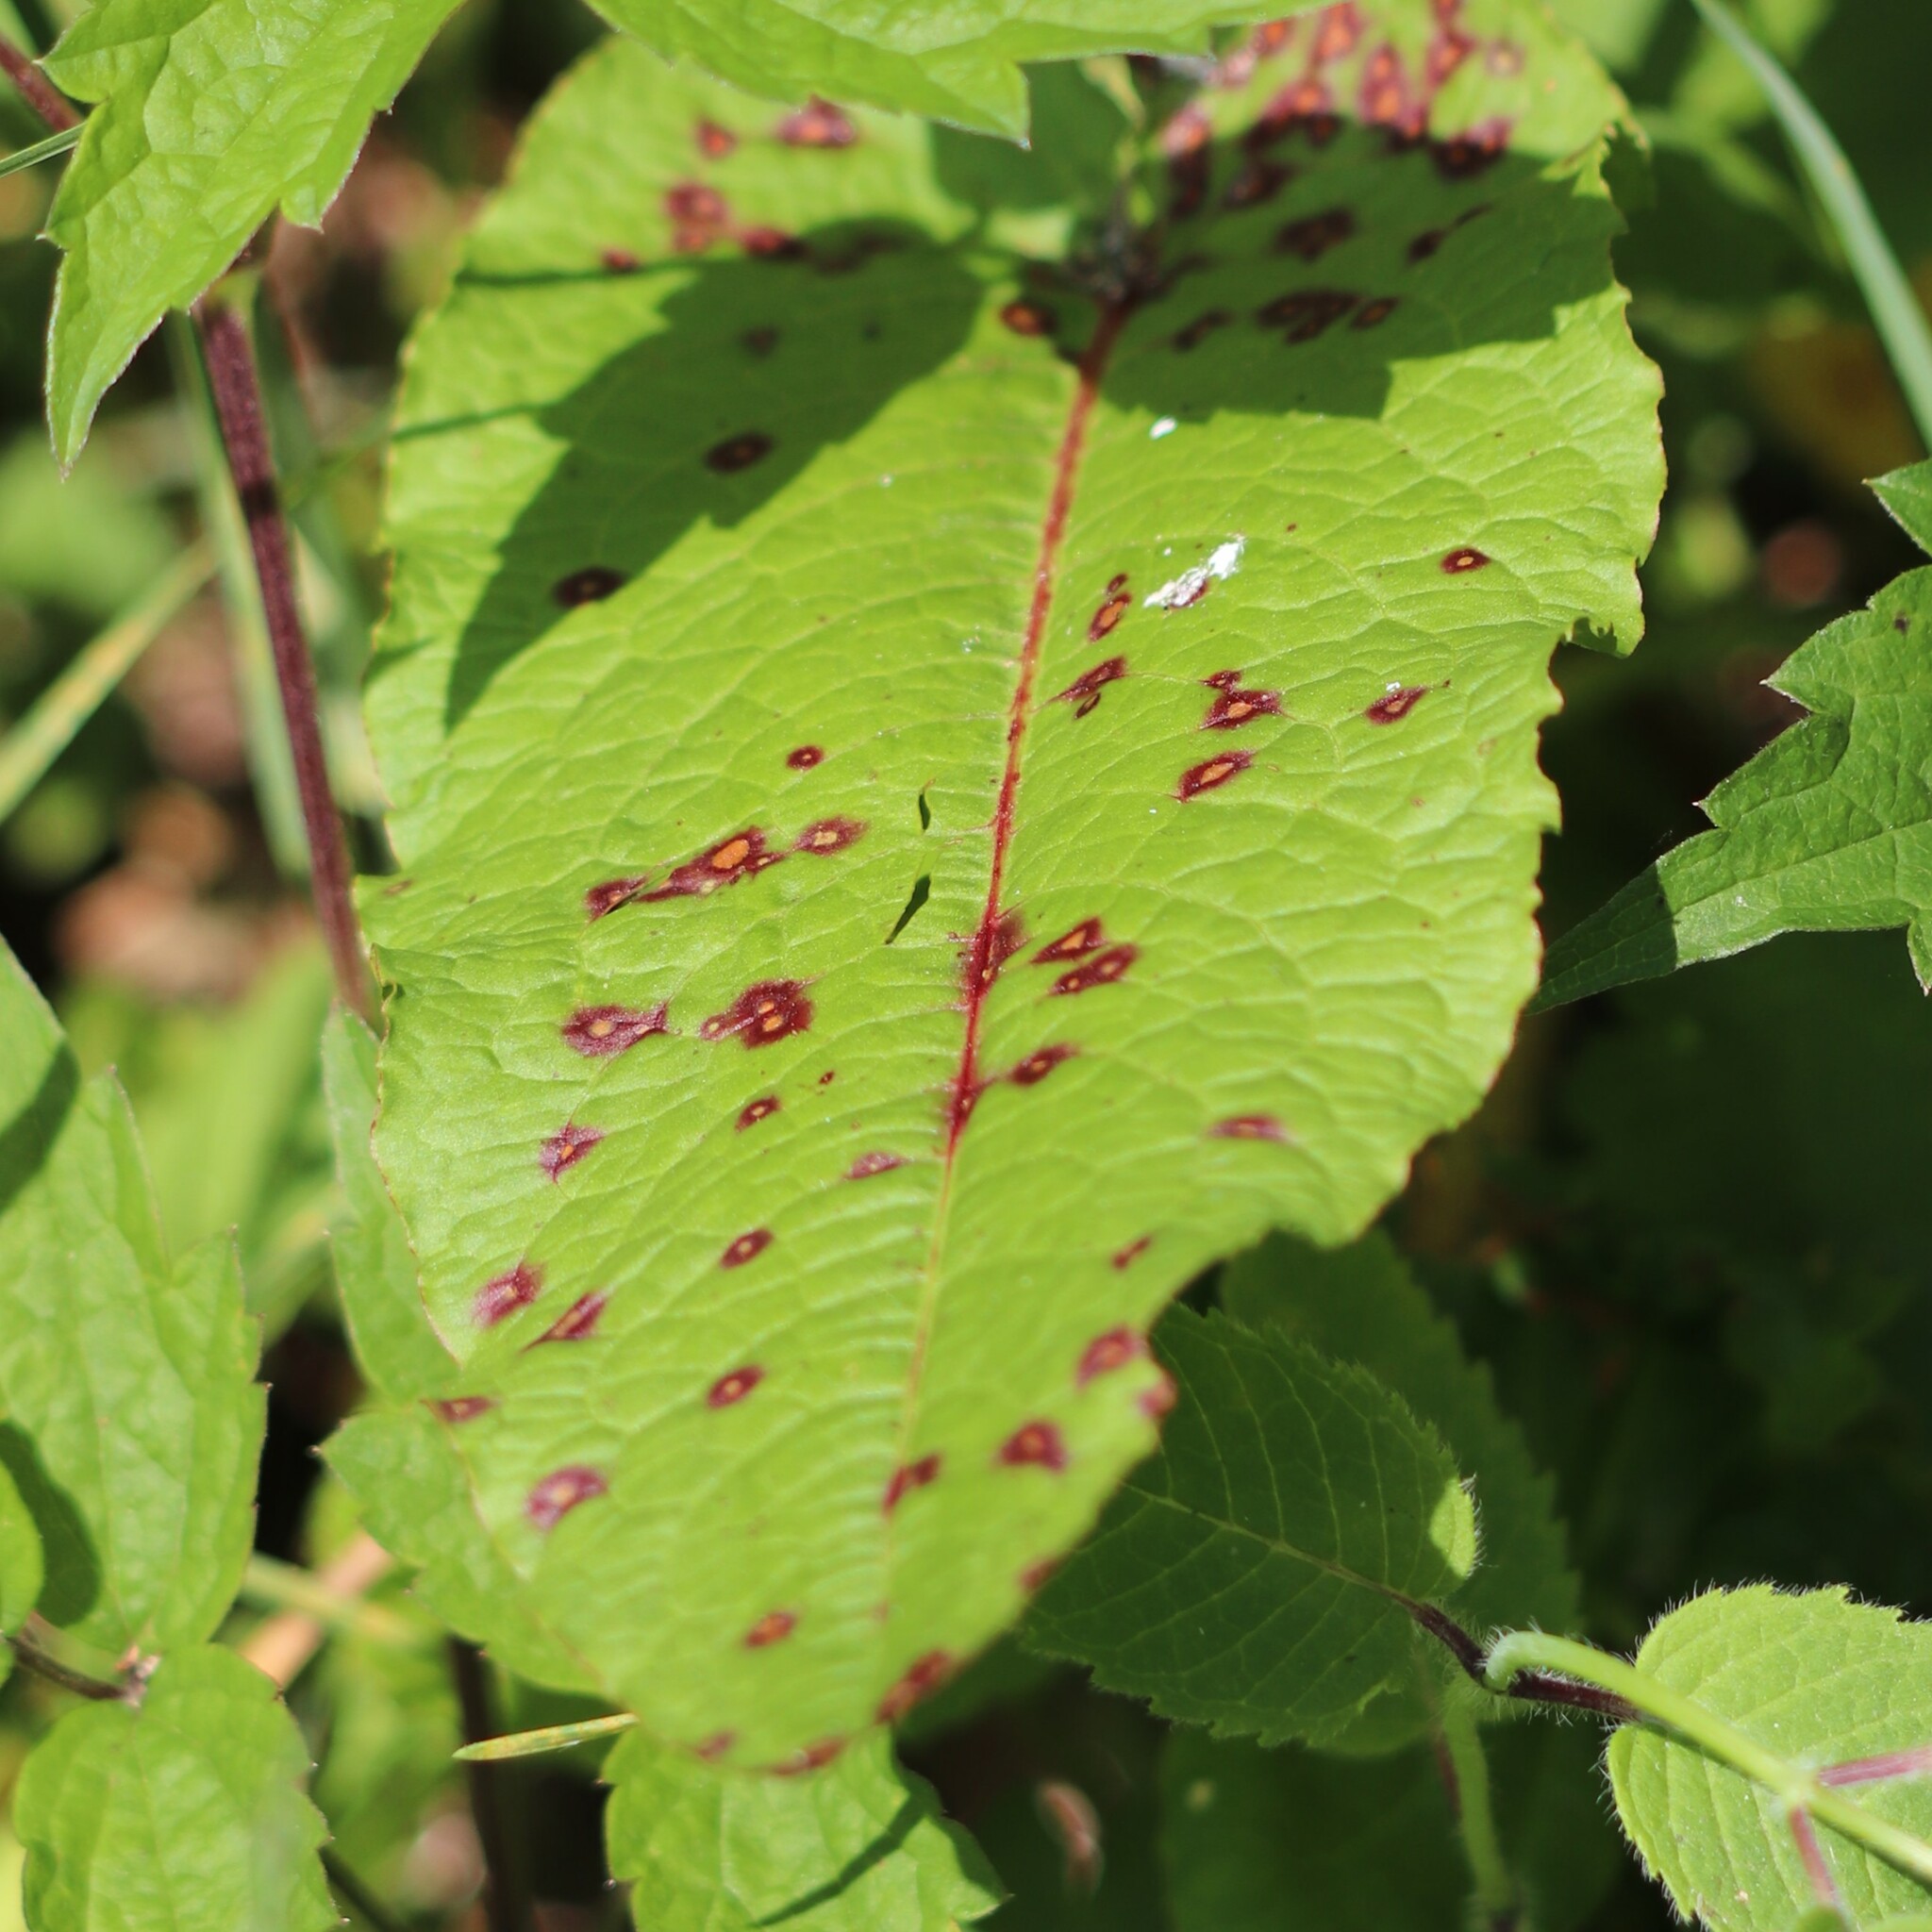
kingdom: Fungi
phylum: Ascomycota
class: Dothideomycetes
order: Mycosphaerellales
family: Mycosphaerellaceae
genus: Ramularia
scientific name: Ramularia rubella
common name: Red dock spot
